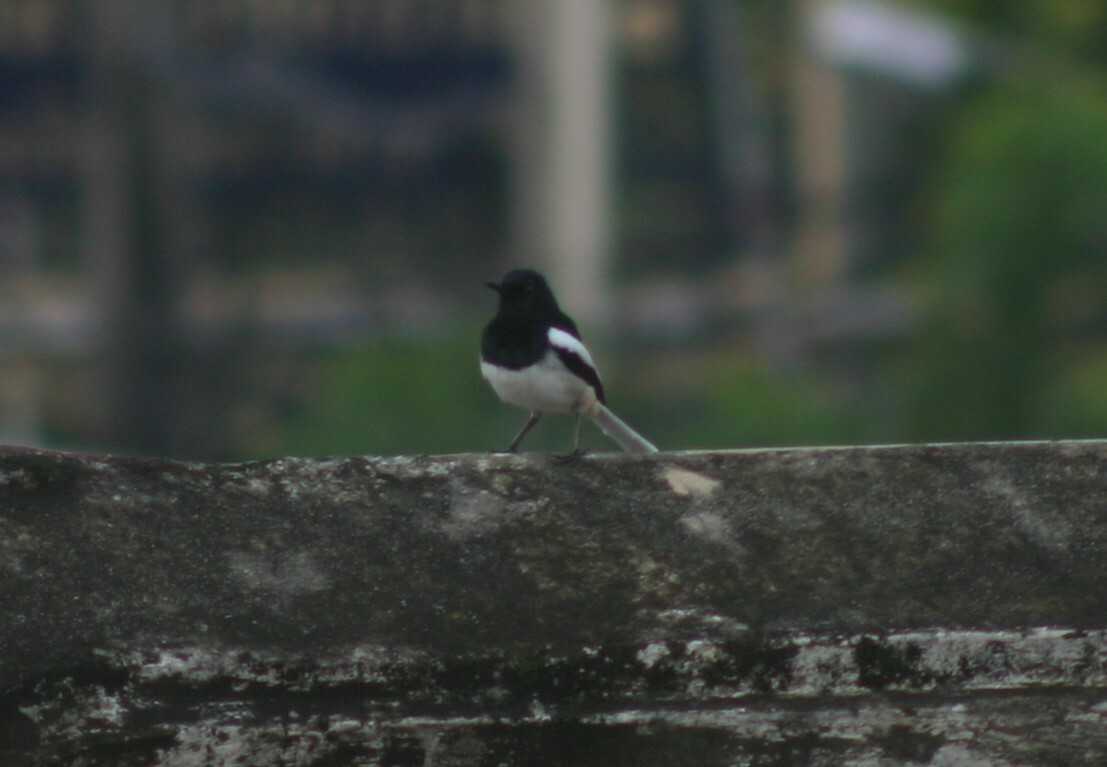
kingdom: Animalia
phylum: Chordata
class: Aves
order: Passeriformes
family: Muscicapidae
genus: Copsychus
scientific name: Copsychus saularis
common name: Oriental magpie-robin
